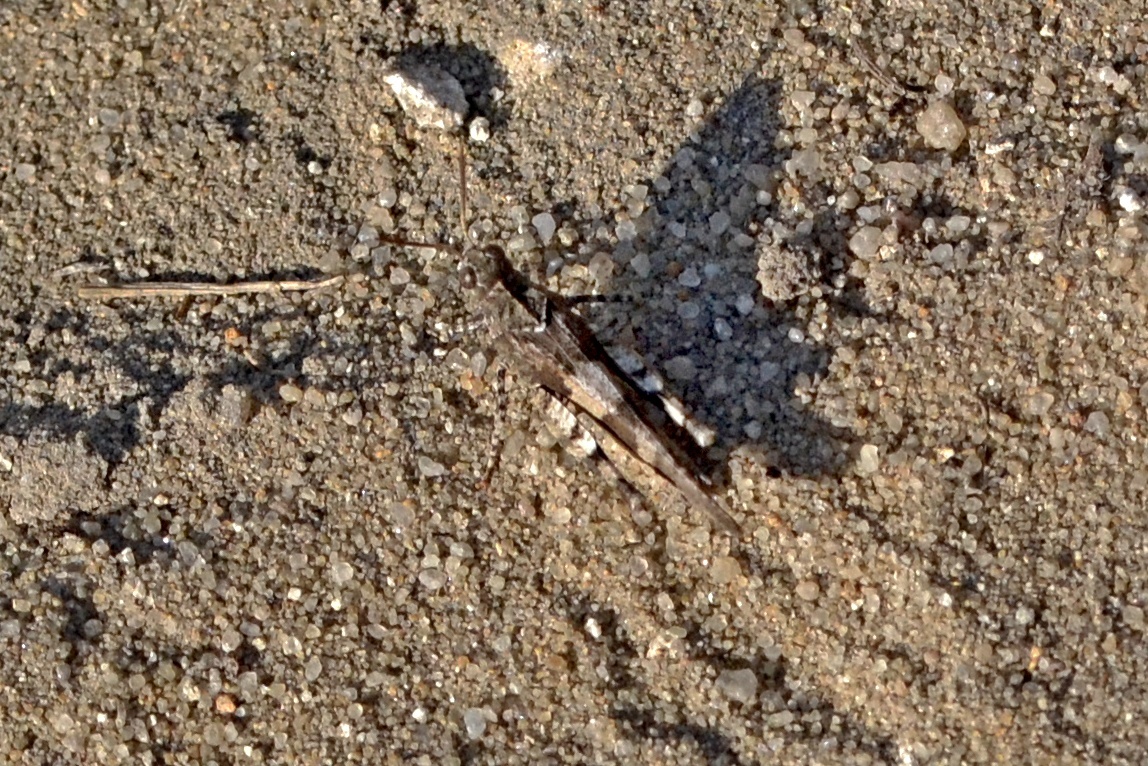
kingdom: Animalia
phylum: Arthropoda
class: Insecta
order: Orthoptera
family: Acrididae
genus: Oedipoda
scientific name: Oedipoda caerulescens
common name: Blue-winged grasshopper
